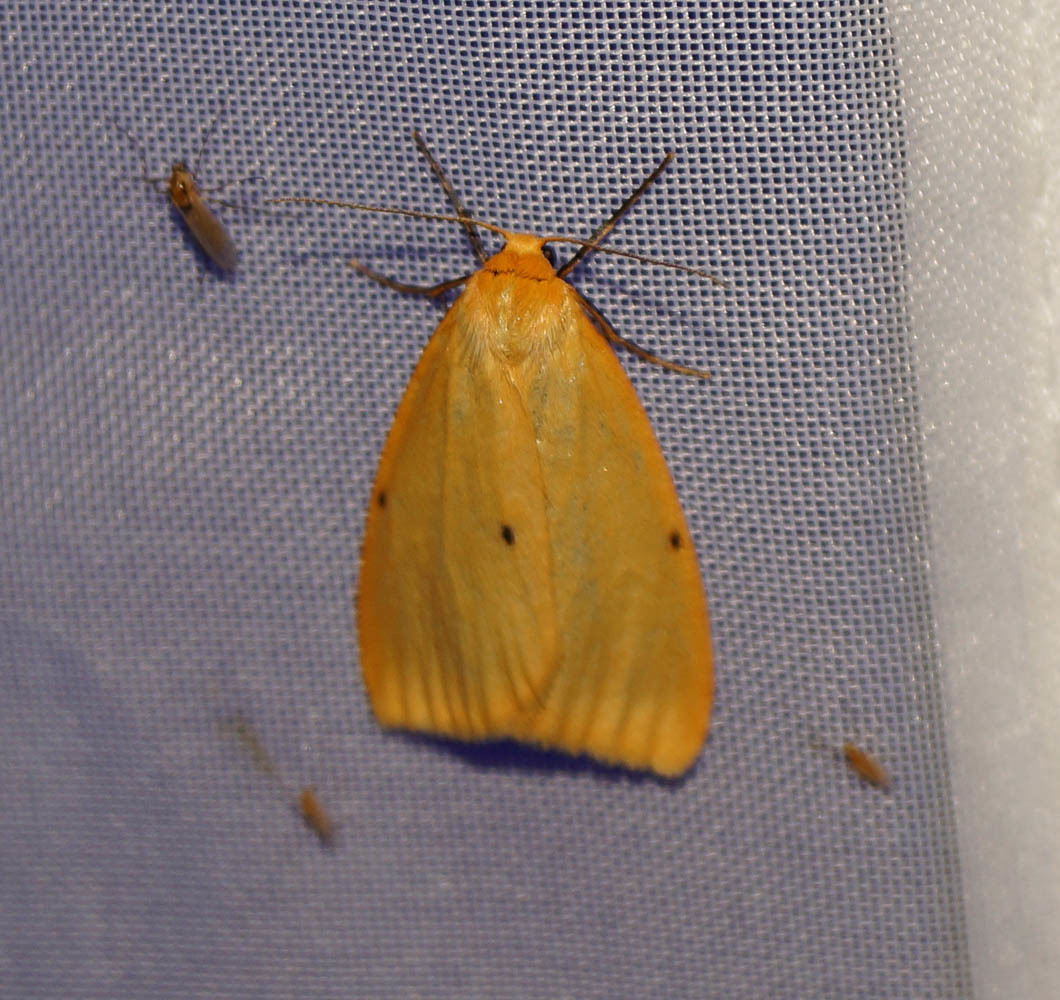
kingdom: Animalia
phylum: Arthropoda
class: Insecta
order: Lepidoptera
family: Erebidae
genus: Cybosia
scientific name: Cybosia mesomella
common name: Four-dotted footman
